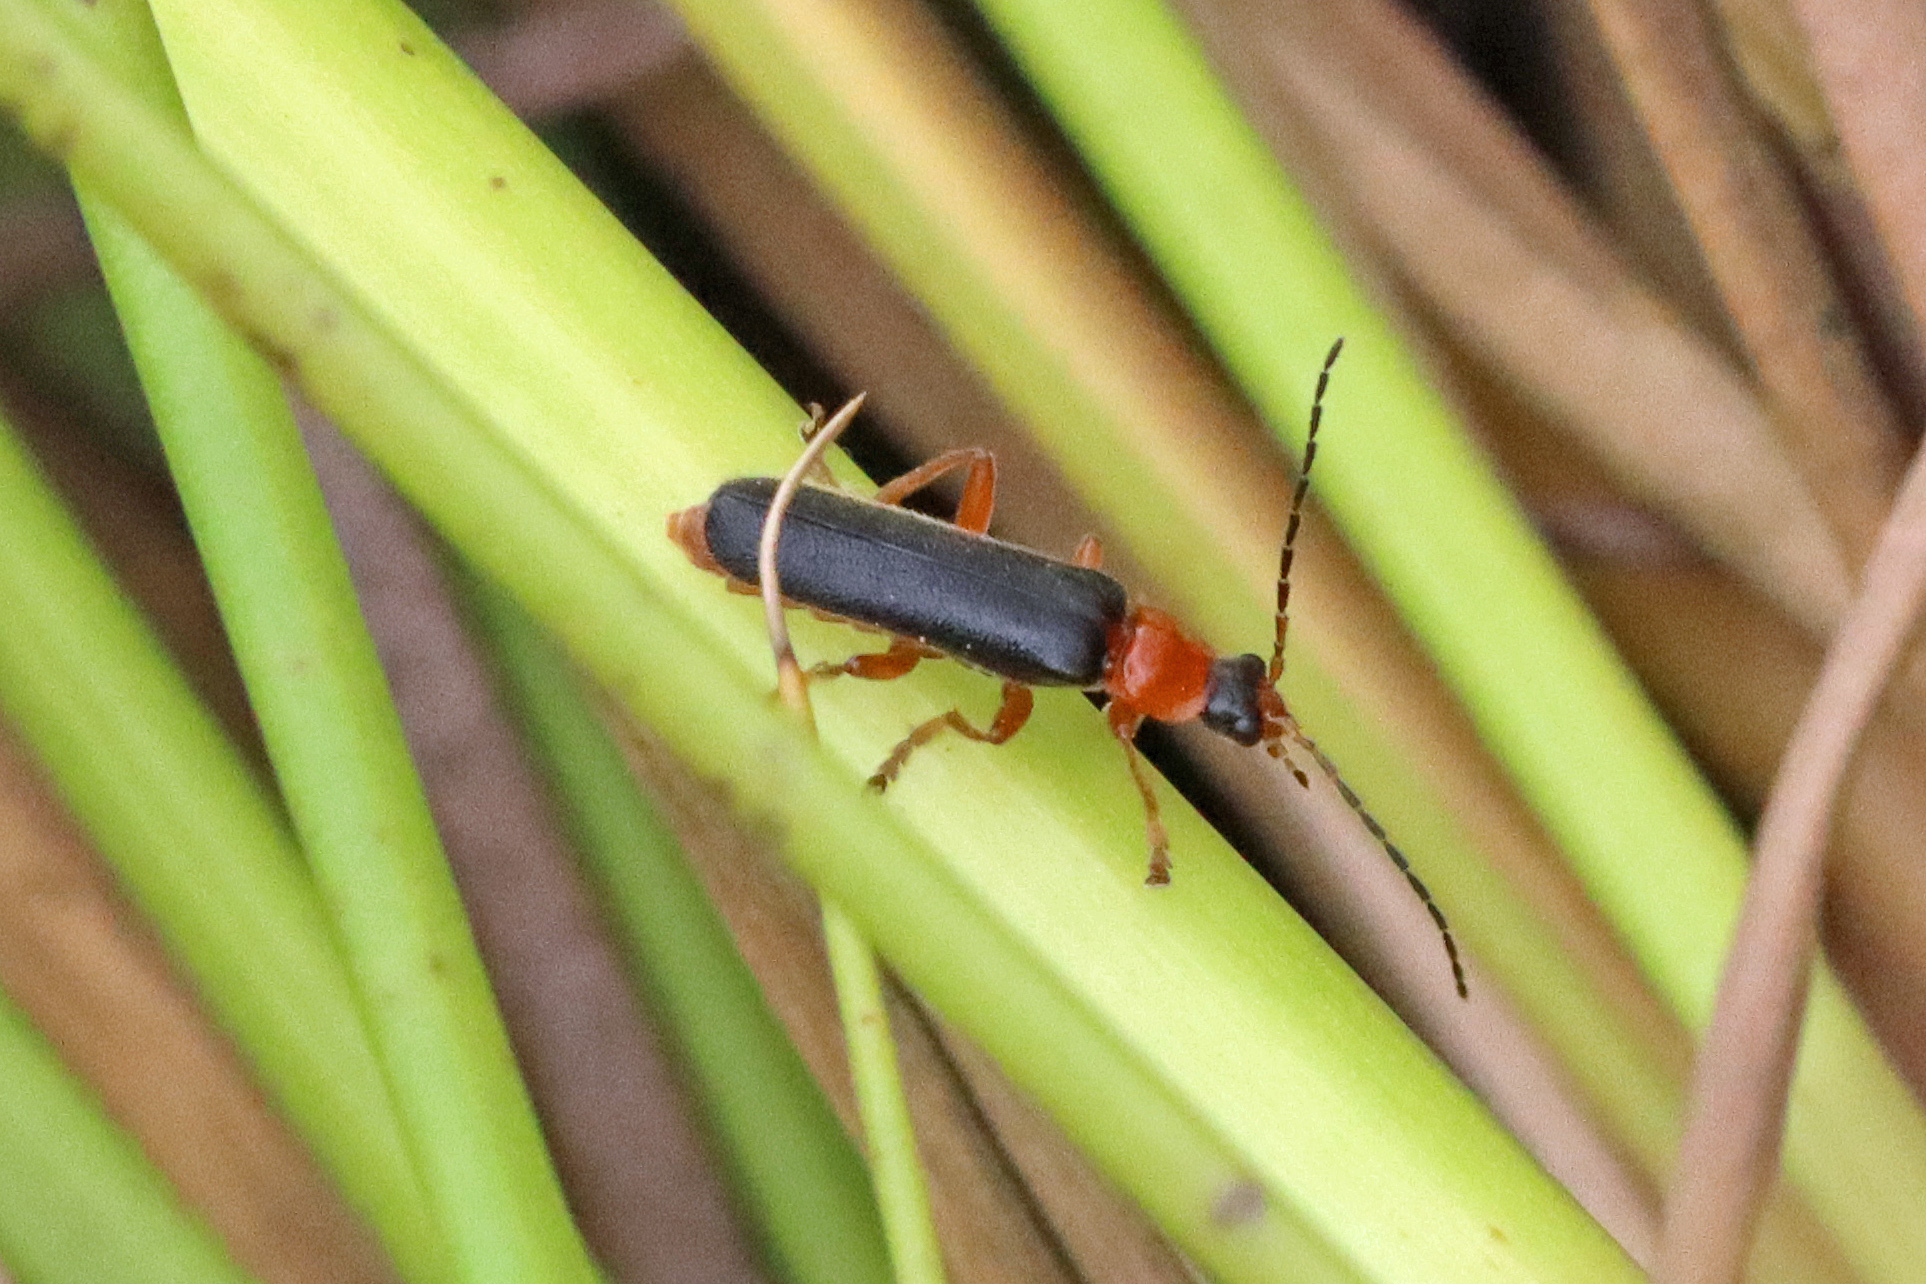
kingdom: Animalia
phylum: Arthropoda
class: Insecta
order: Coleoptera
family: Cantharidae
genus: Cantharis
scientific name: Cantharis nigra
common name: Cantharid beetle
